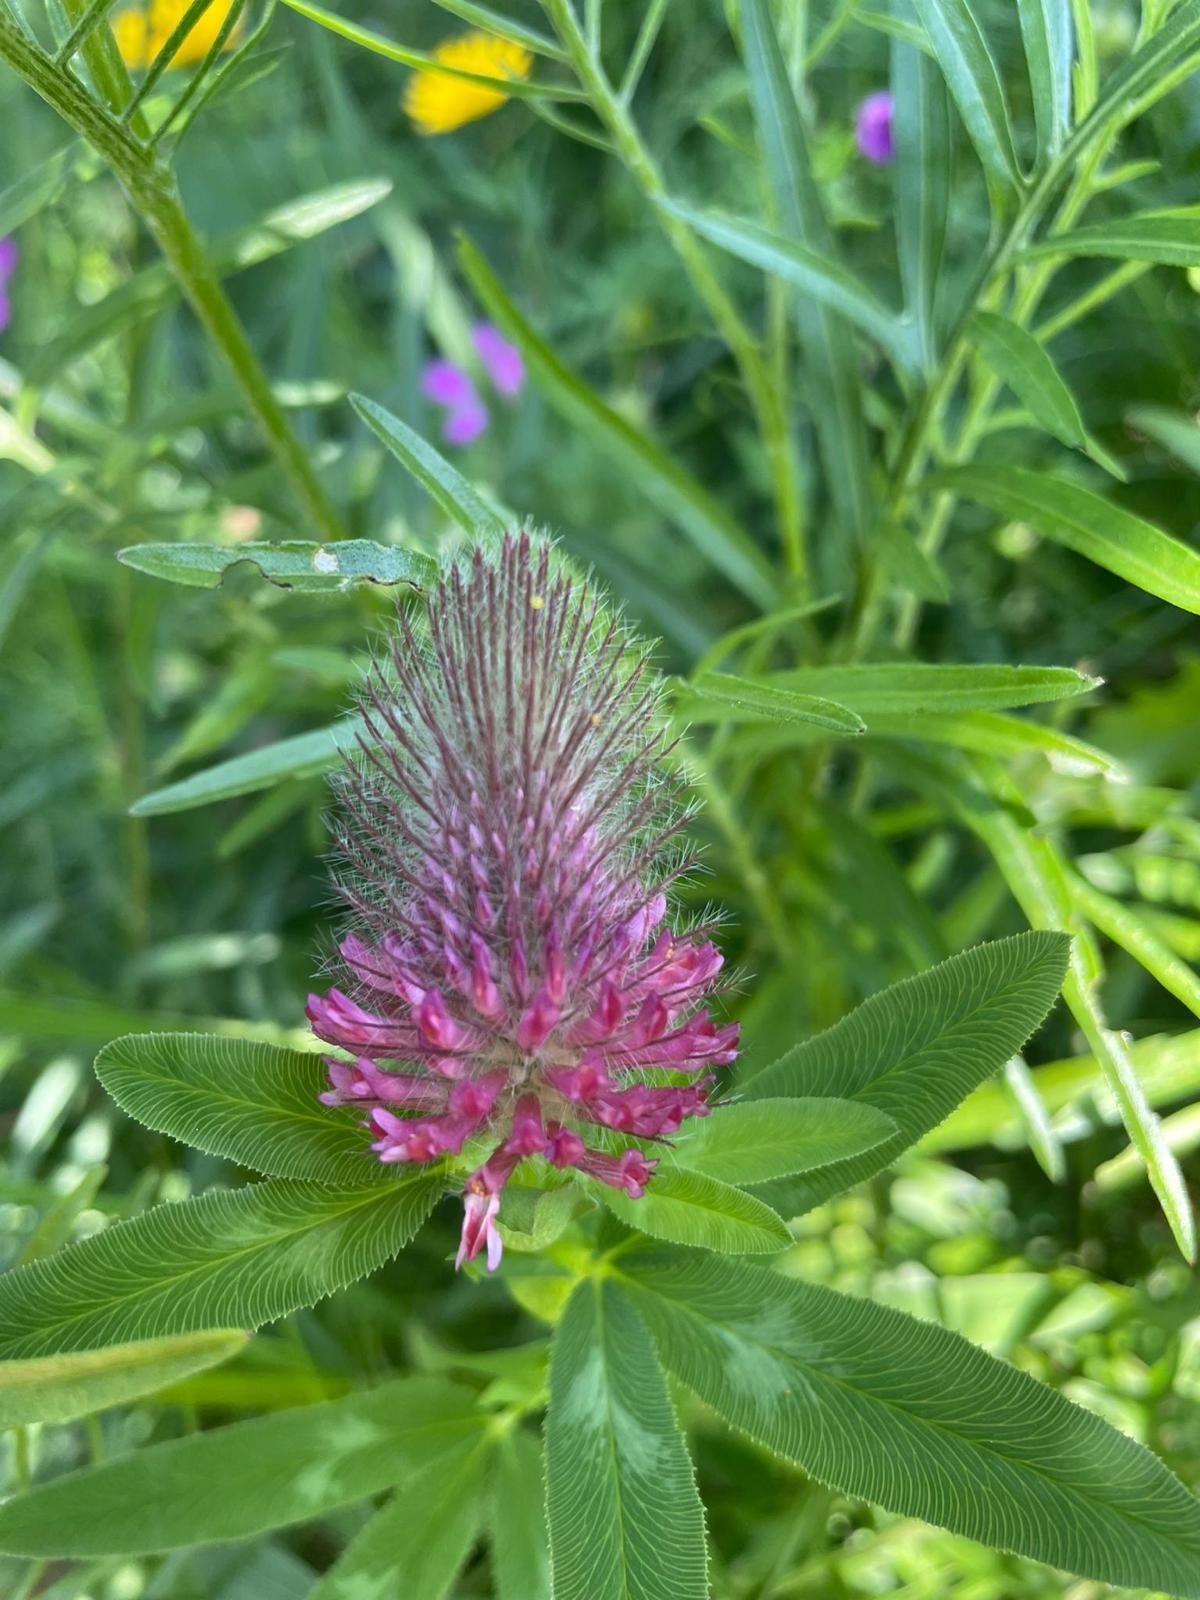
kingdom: Plantae
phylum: Tracheophyta
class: Magnoliopsida
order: Fabales
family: Fabaceae
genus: Trifolium
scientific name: Trifolium rubens
